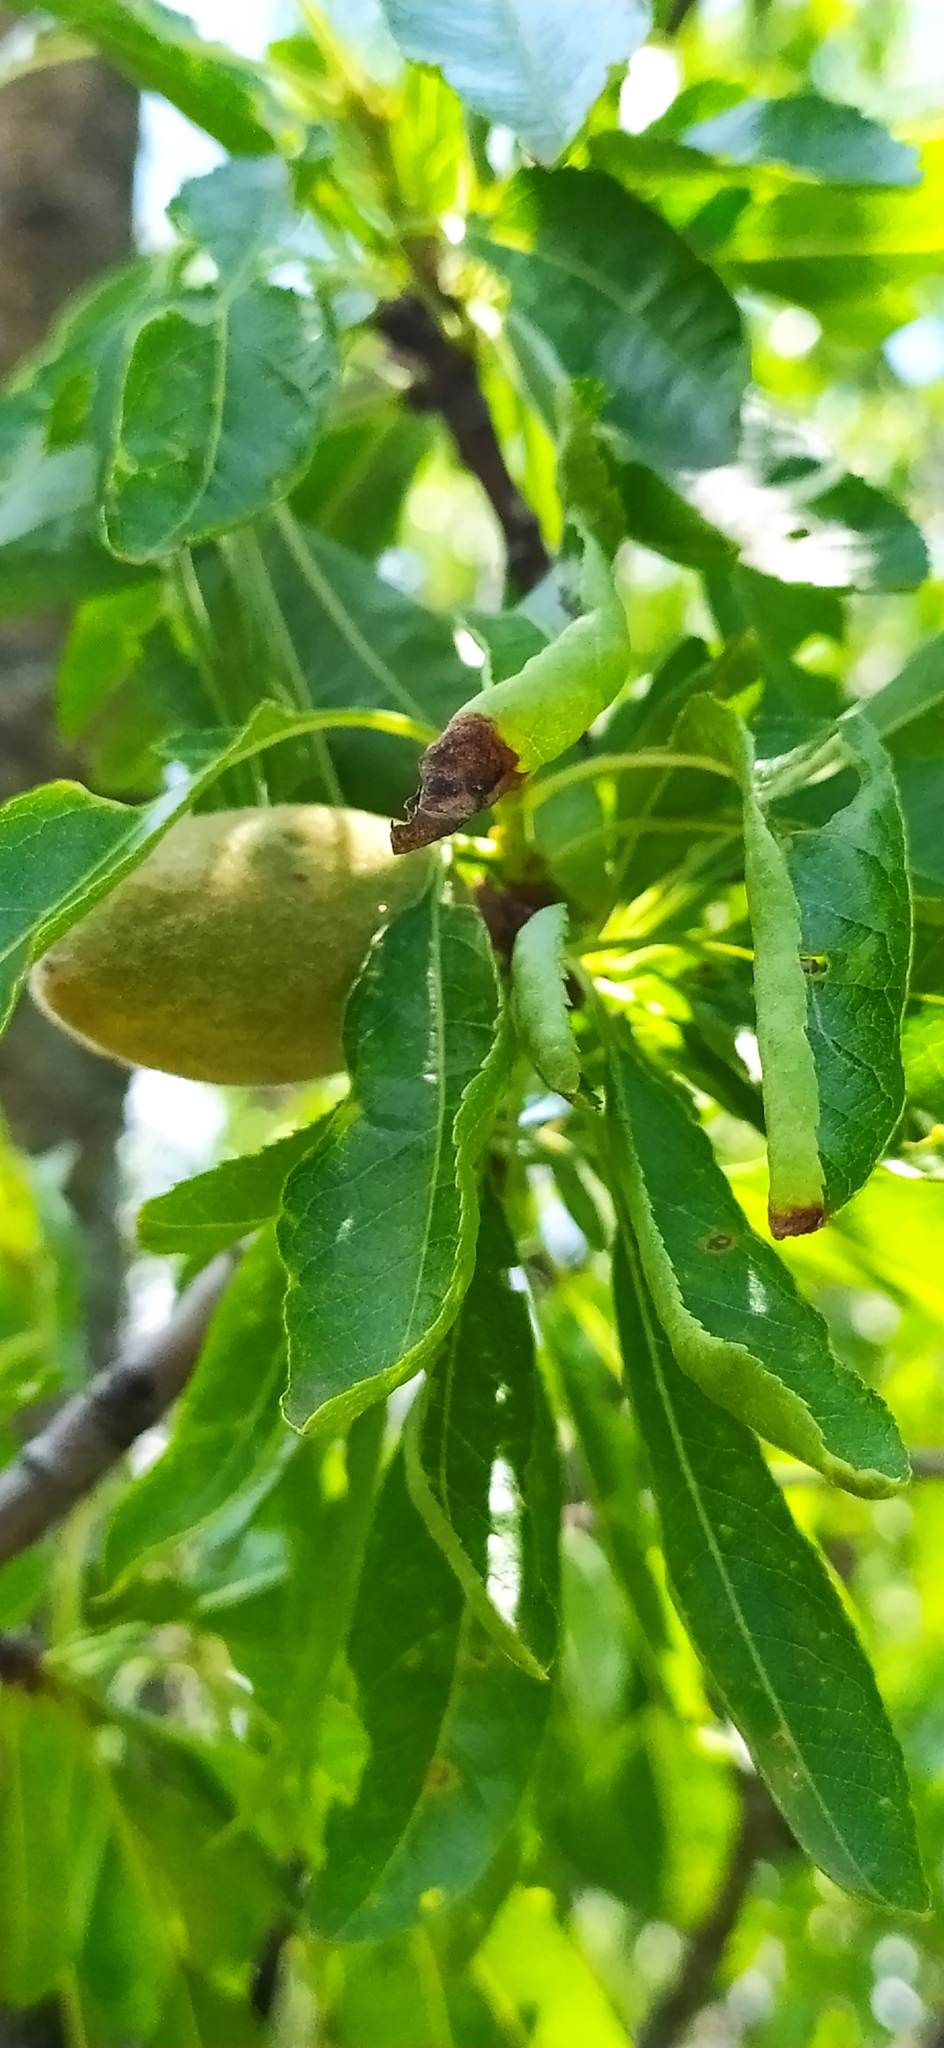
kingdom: Plantae
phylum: Tracheophyta
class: Magnoliopsida
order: Rosales
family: Rosaceae
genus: Prunus
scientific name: Prunus amygdalus
